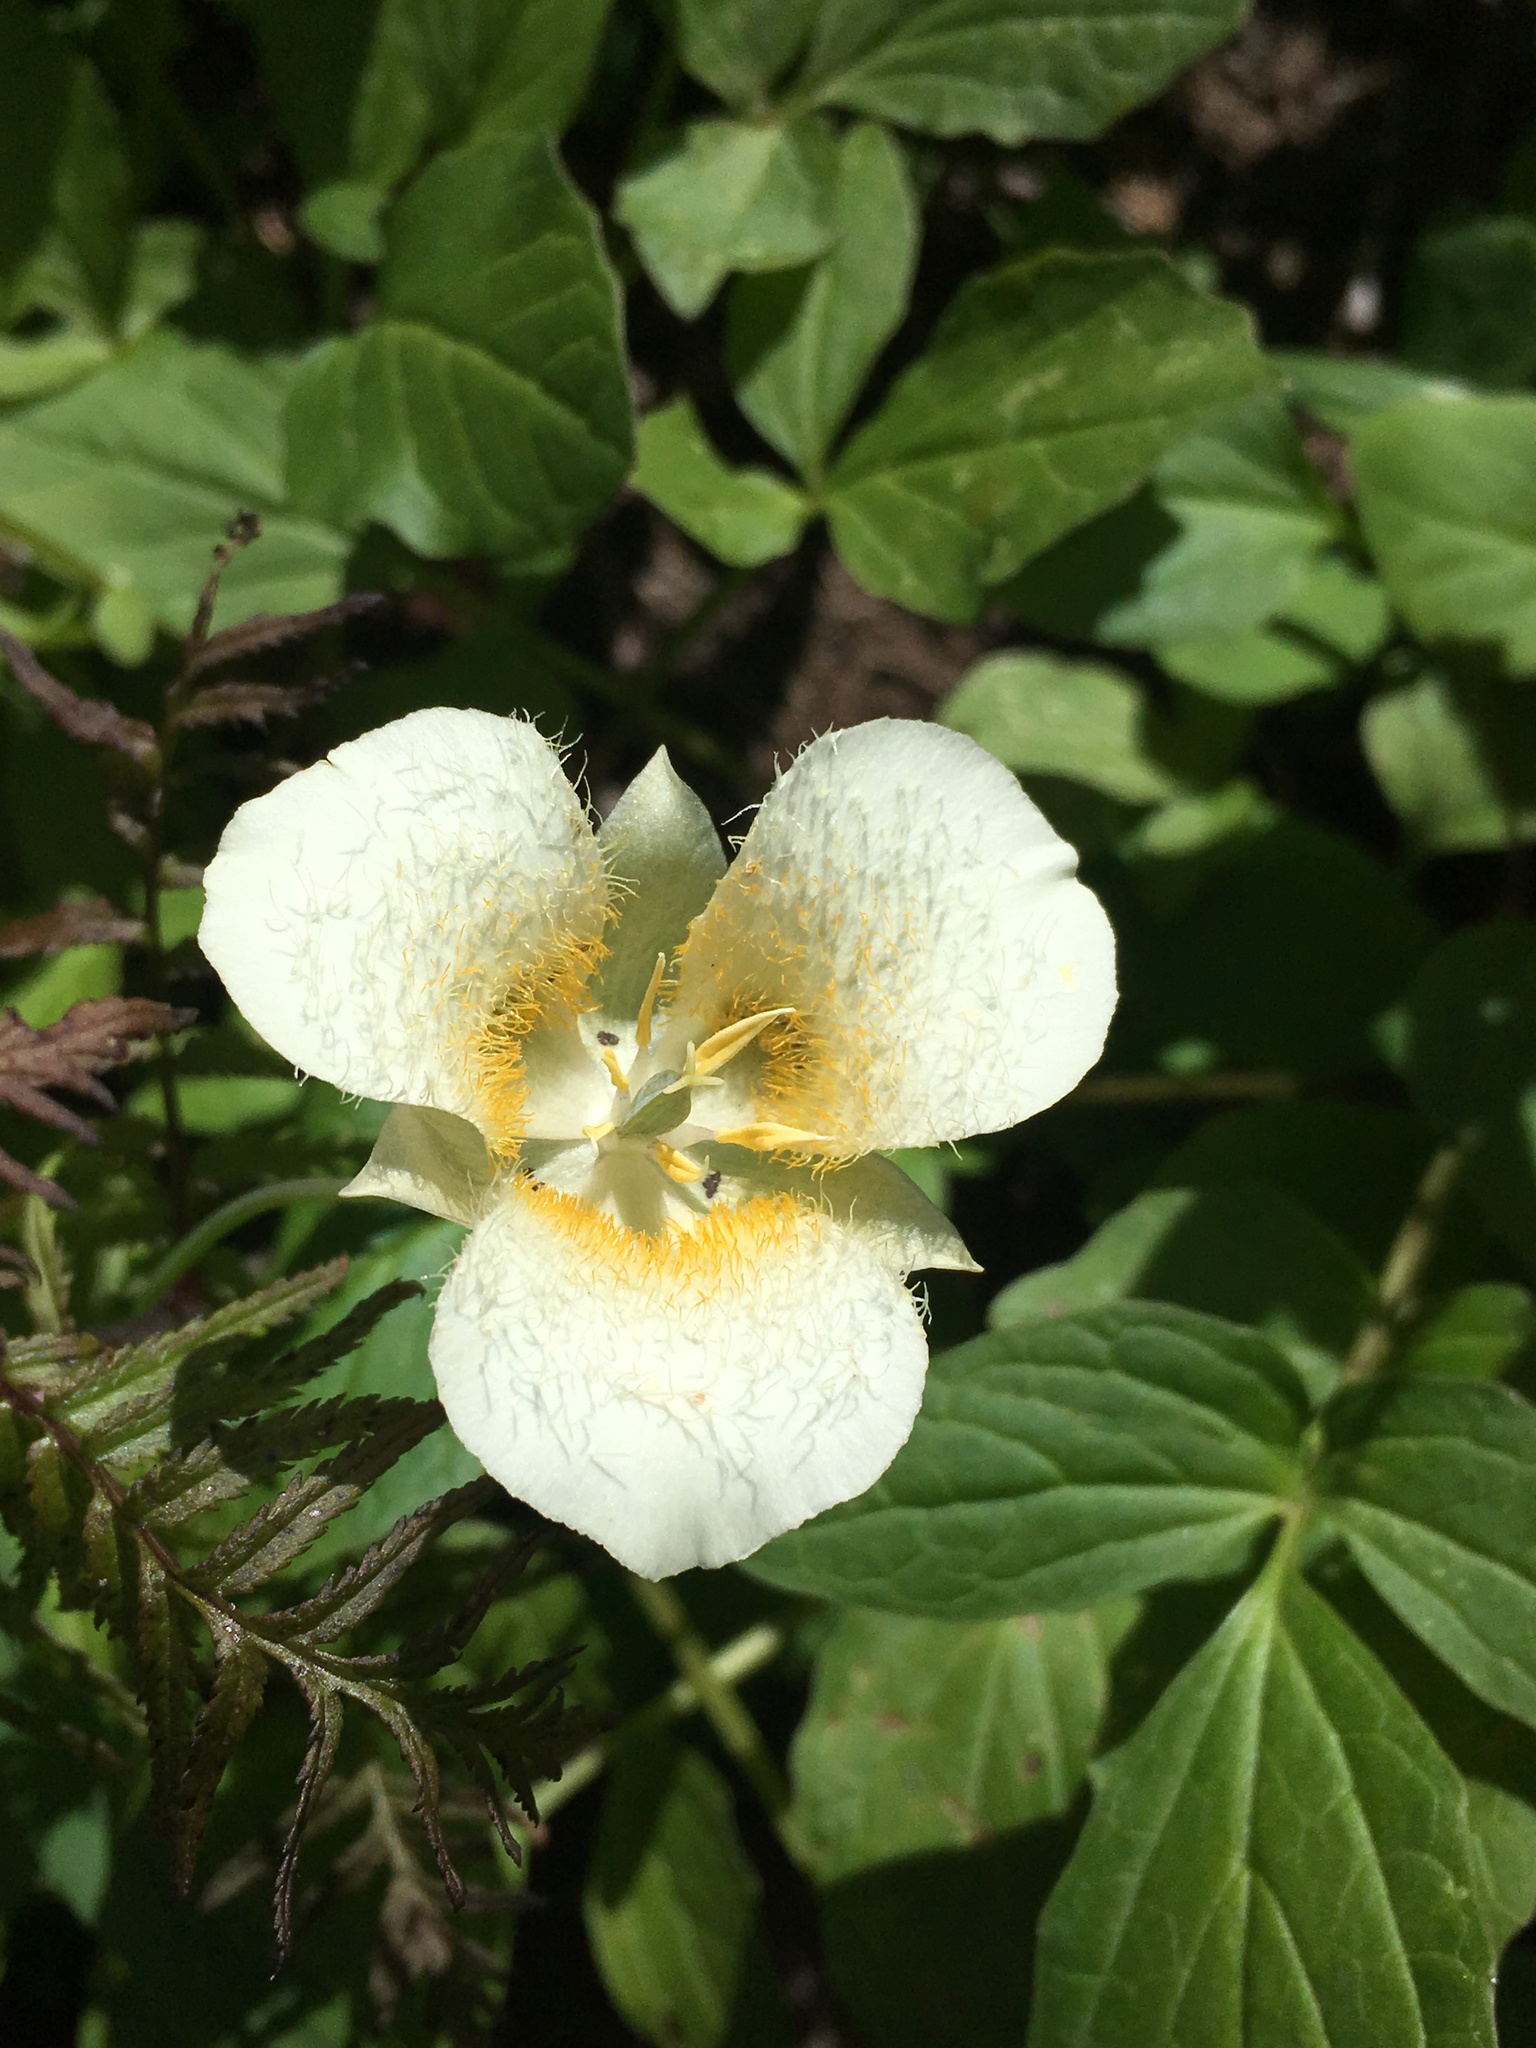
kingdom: Plantae
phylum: Tracheophyta
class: Liliopsida
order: Liliales
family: Liliaceae
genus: Calochortus
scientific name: Calochortus subalpinus
